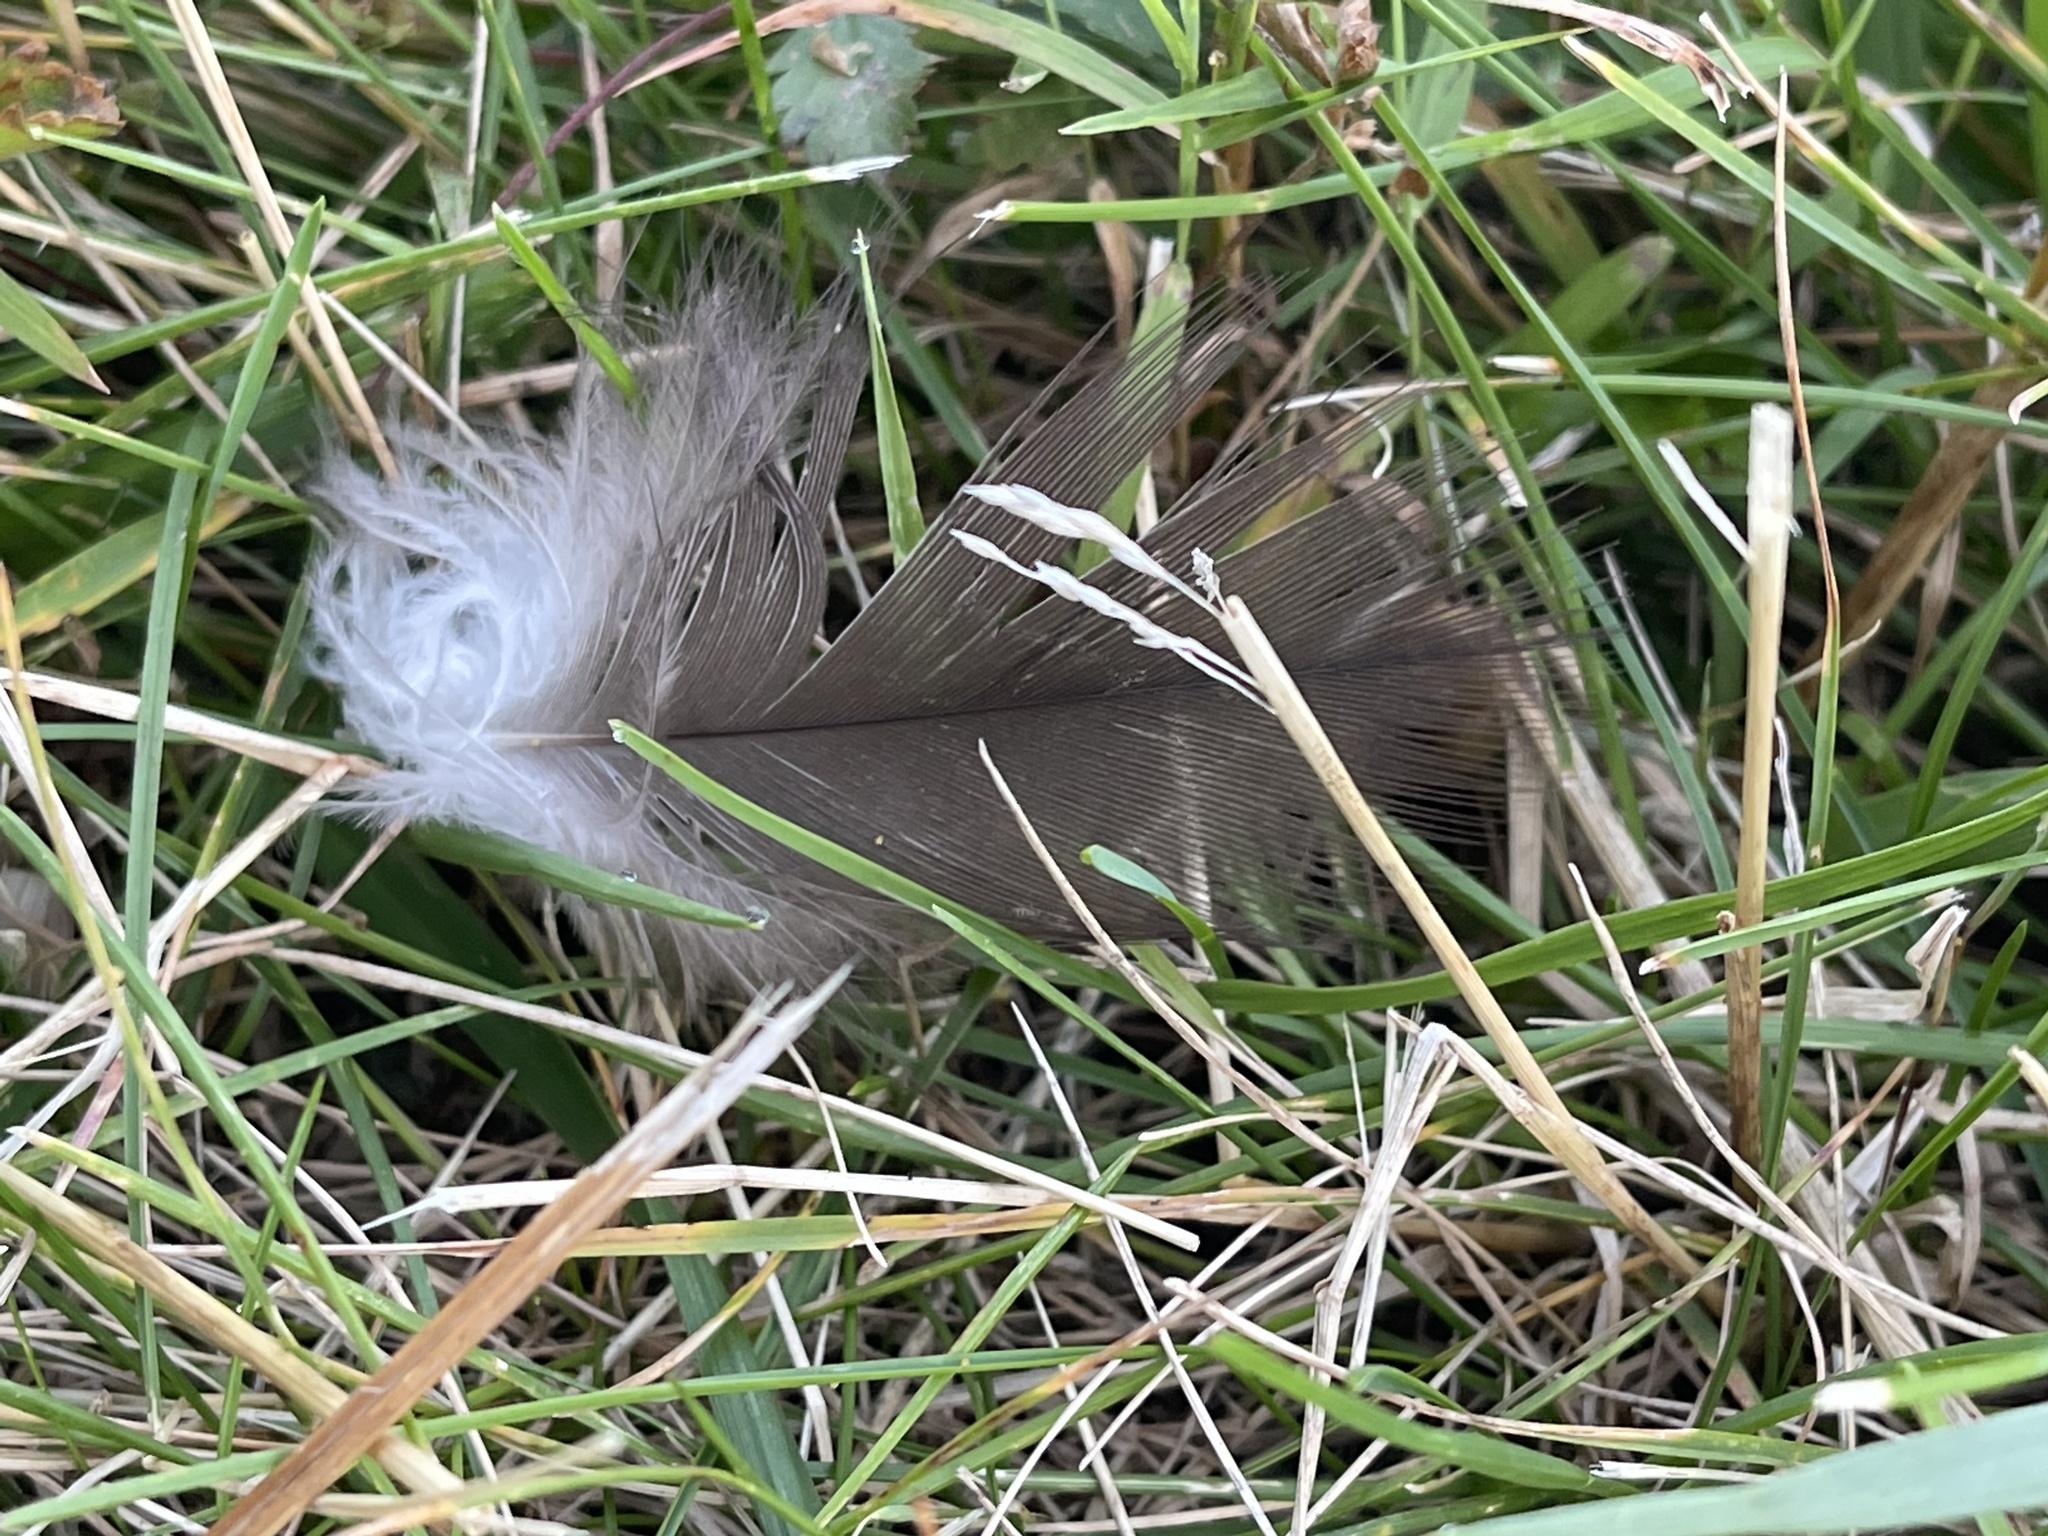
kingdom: Animalia
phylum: Chordata
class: Aves
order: Accipitriformes
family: Cathartidae
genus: Cathartes
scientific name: Cathartes aura
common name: Turkey vulture
